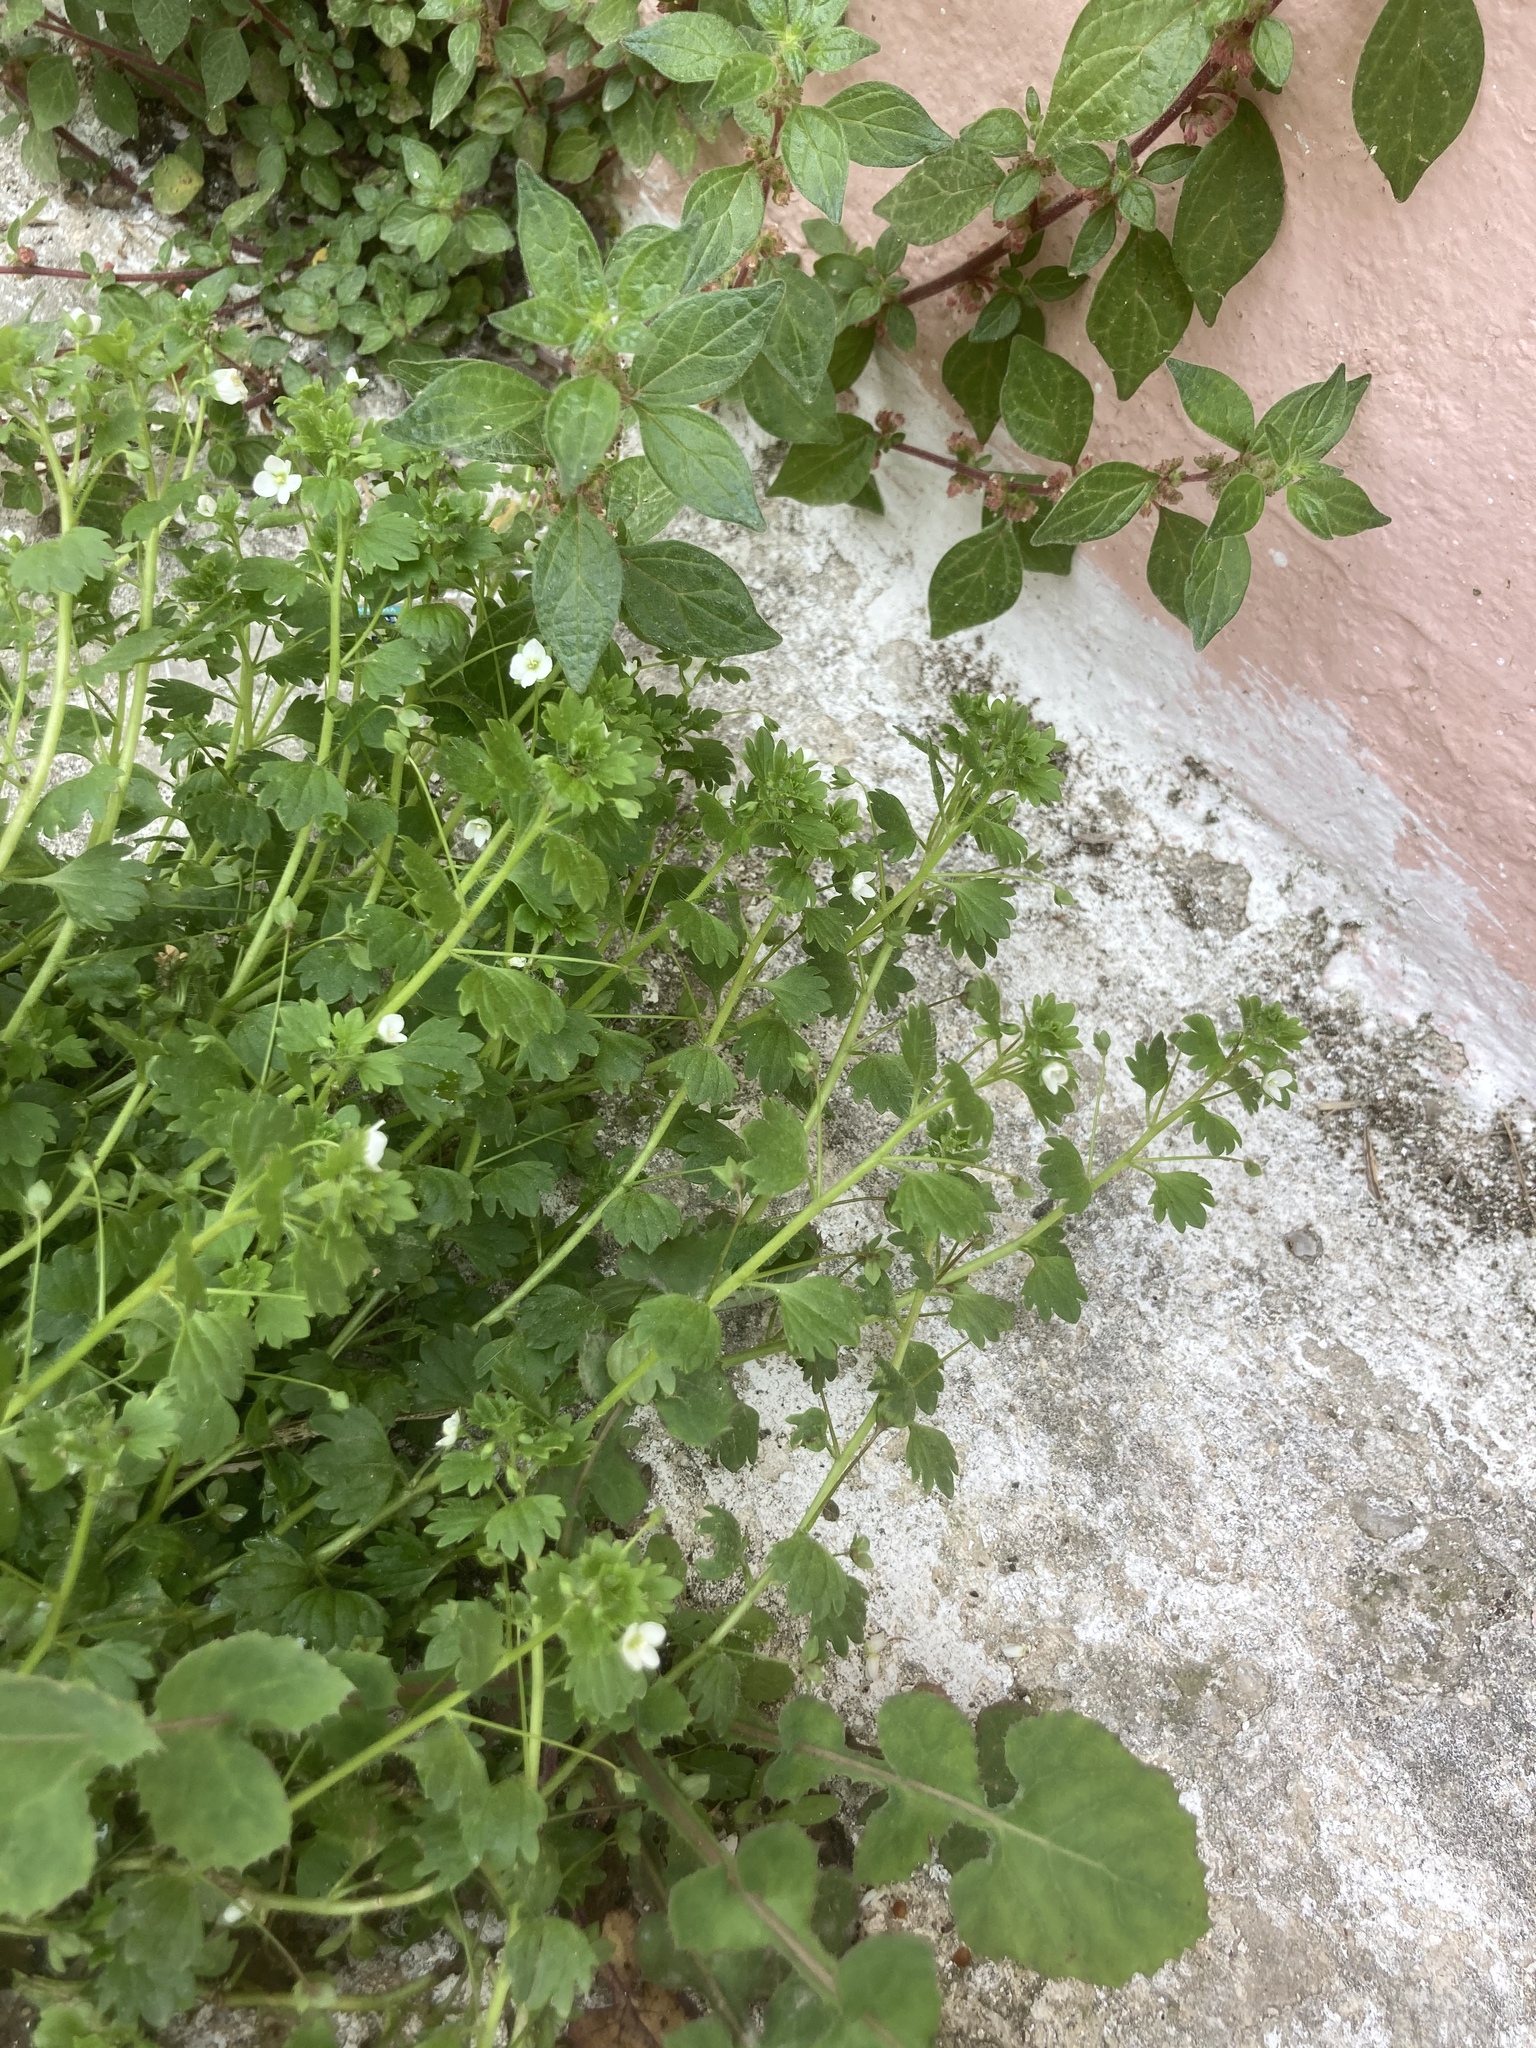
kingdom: Plantae
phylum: Tracheophyta
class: Magnoliopsida
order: Lamiales
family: Plantaginaceae
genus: Veronica
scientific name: Veronica cymbalaria
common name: Pale speedwell
